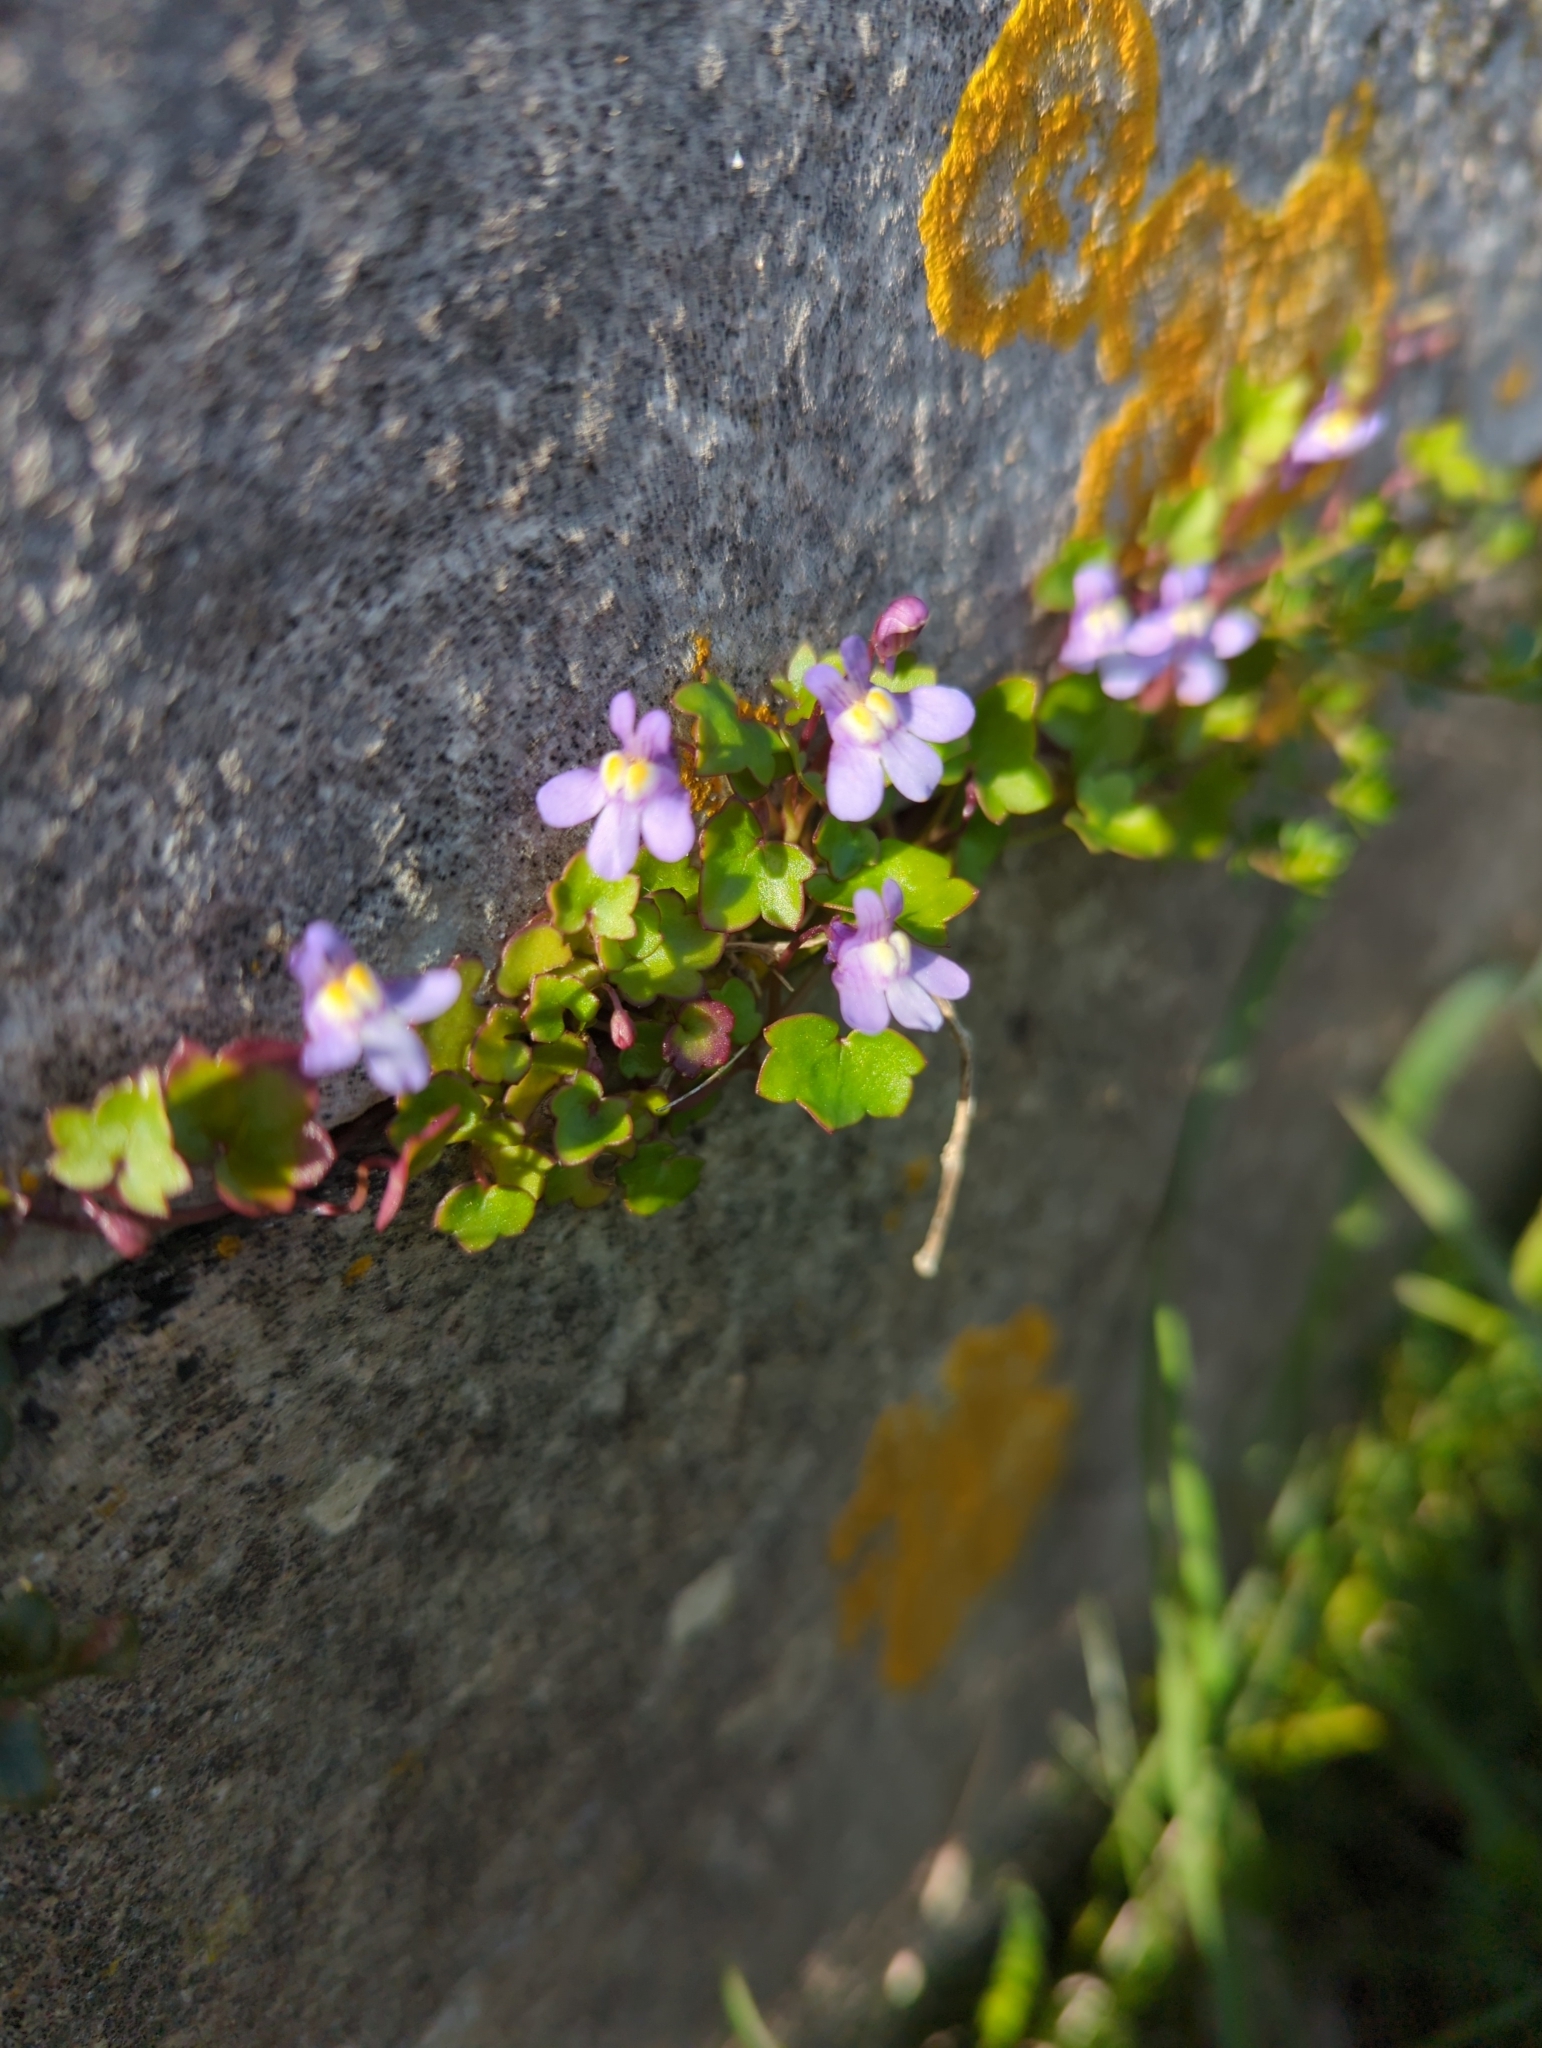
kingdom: Plantae
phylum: Tracheophyta
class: Magnoliopsida
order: Lamiales
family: Plantaginaceae
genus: Cymbalaria
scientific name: Cymbalaria muralis
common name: Ivy-leaved toadflax
